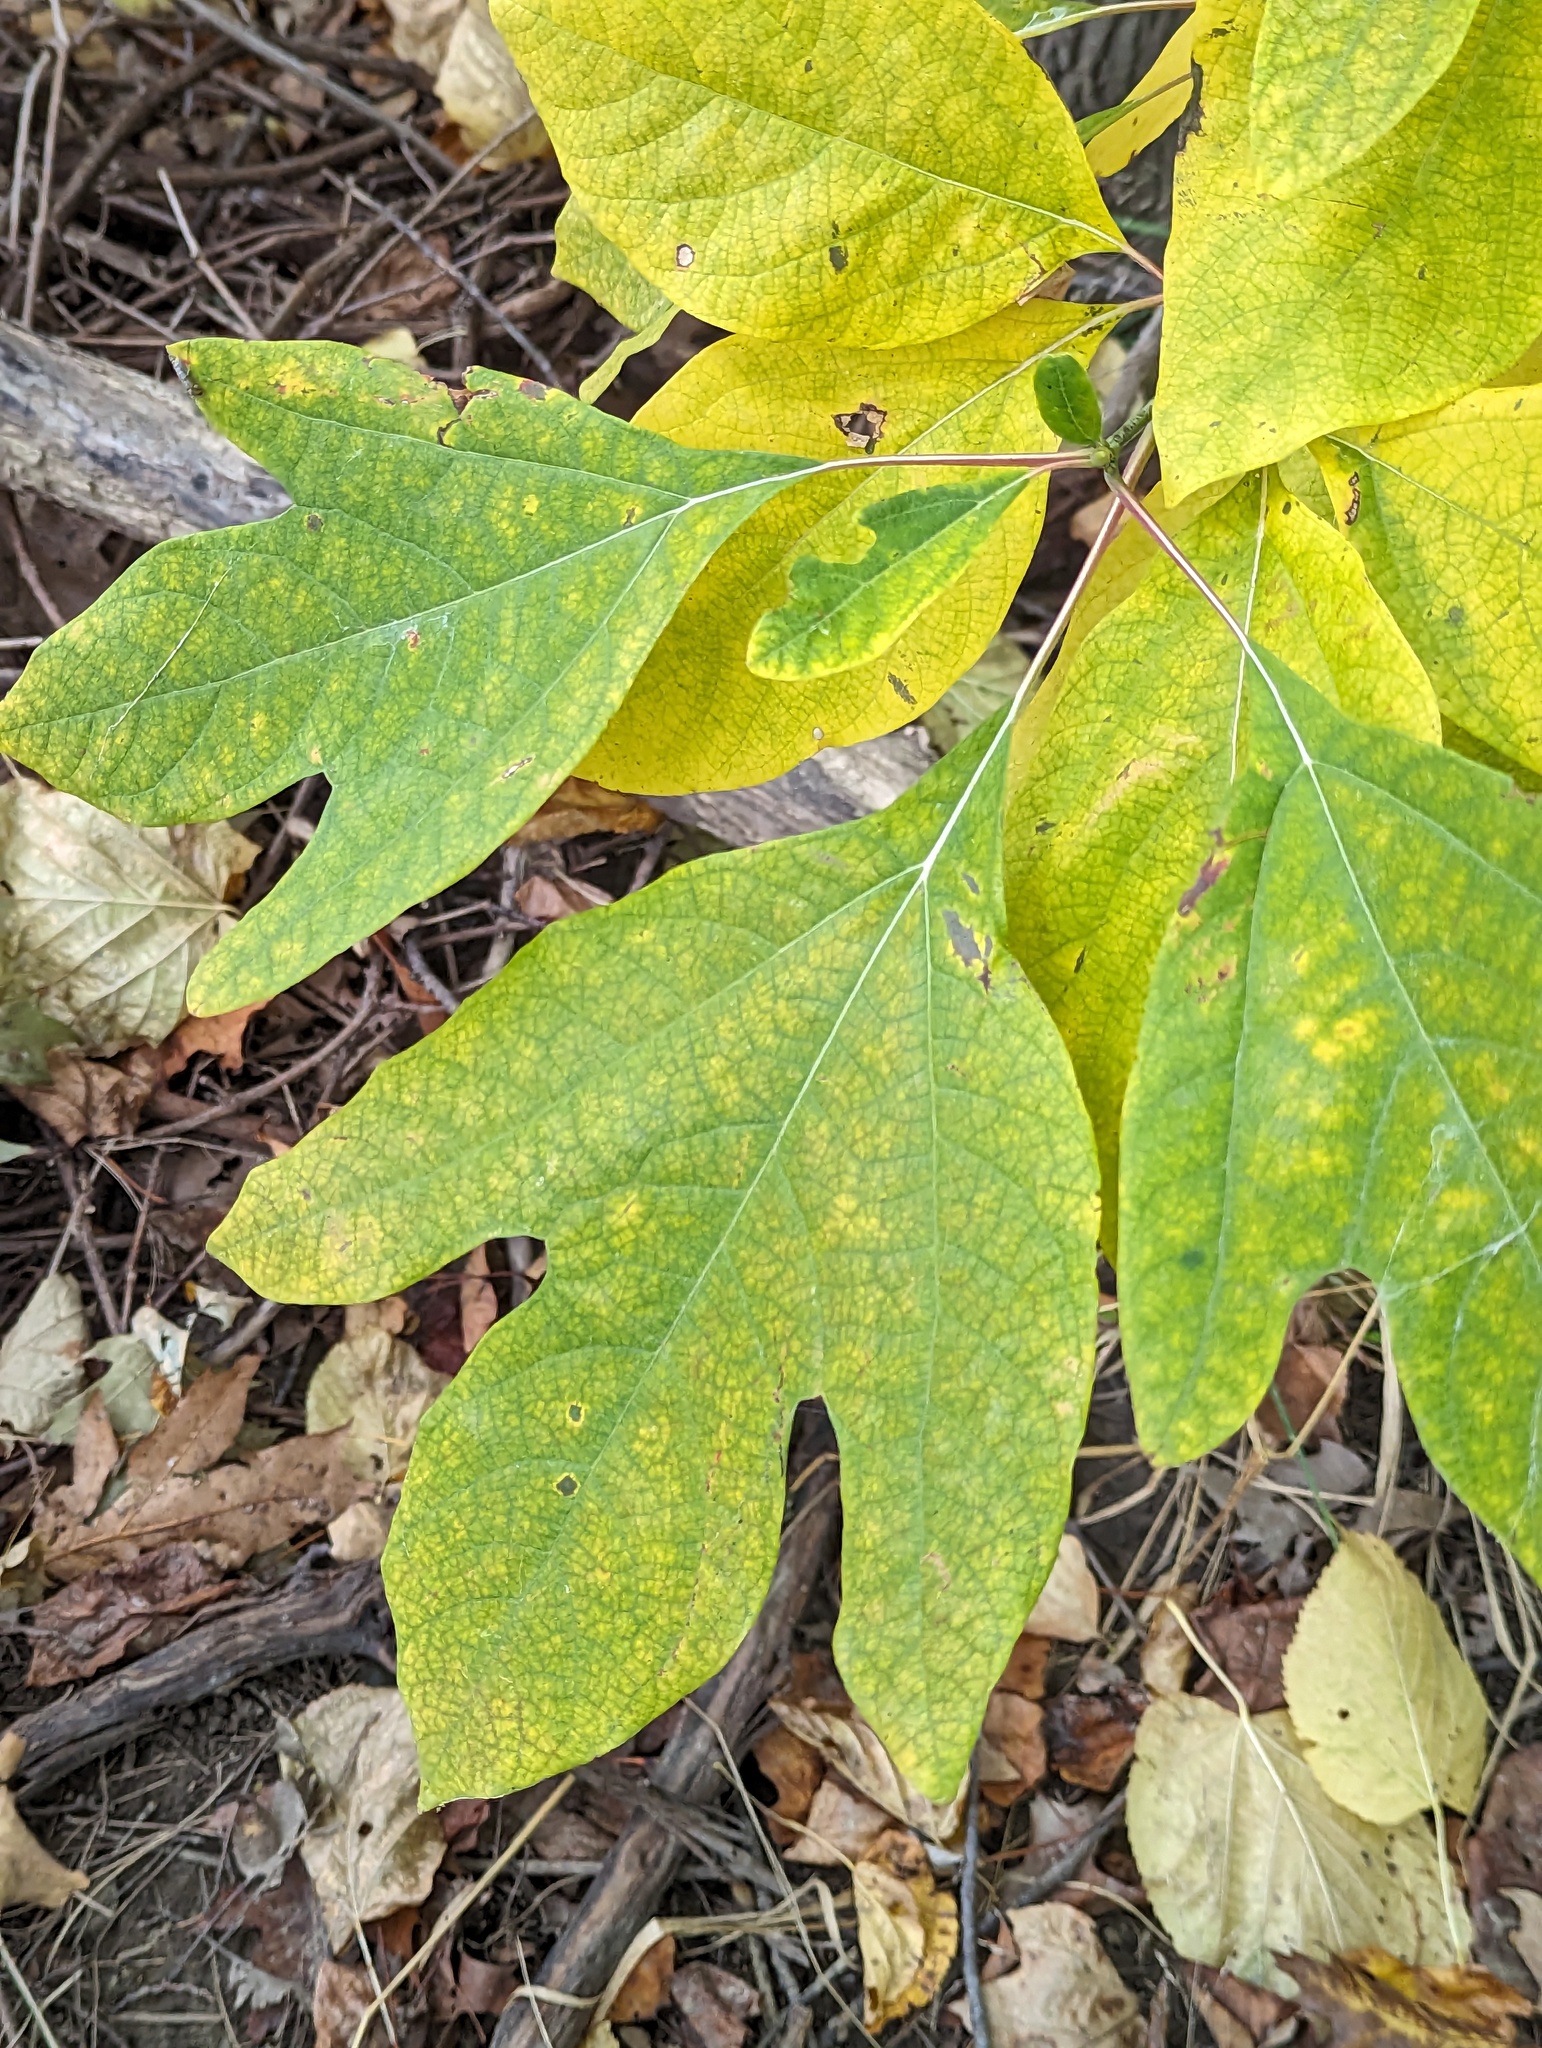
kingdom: Plantae
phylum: Tracheophyta
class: Magnoliopsida
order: Laurales
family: Lauraceae
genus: Sassafras
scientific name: Sassafras albidum
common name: Sassafras
